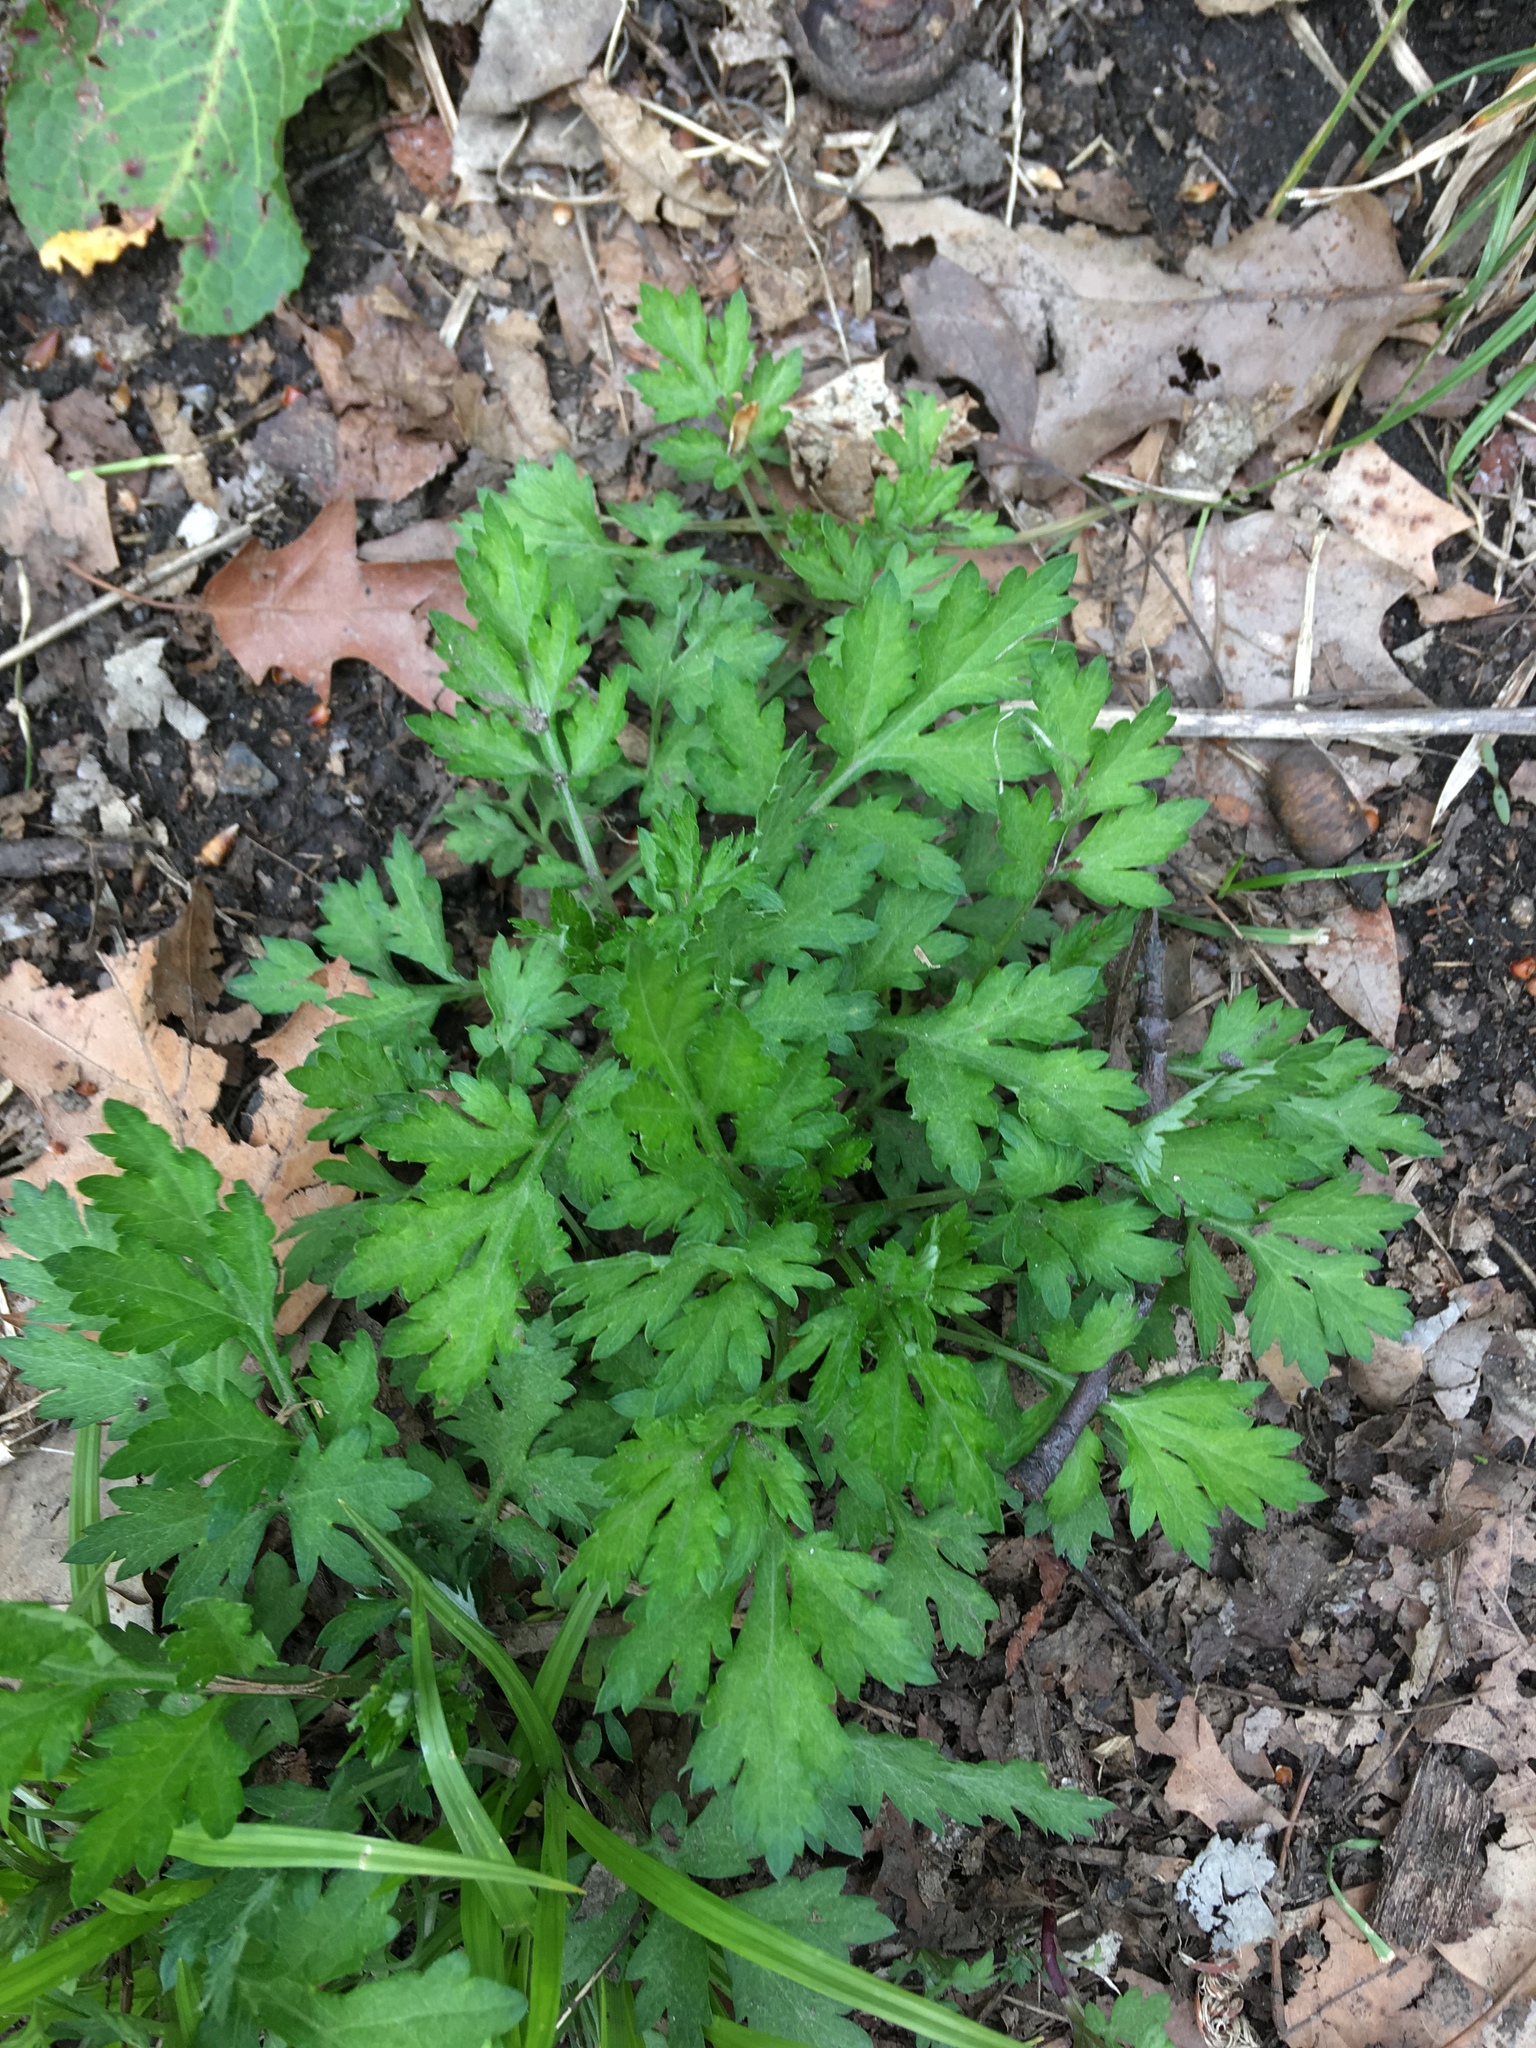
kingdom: Plantae
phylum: Tracheophyta
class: Magnoliopsida
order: Asterales
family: Asteraceae
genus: Artemisia
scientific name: Artemisia vulgaris
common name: Mugwort
